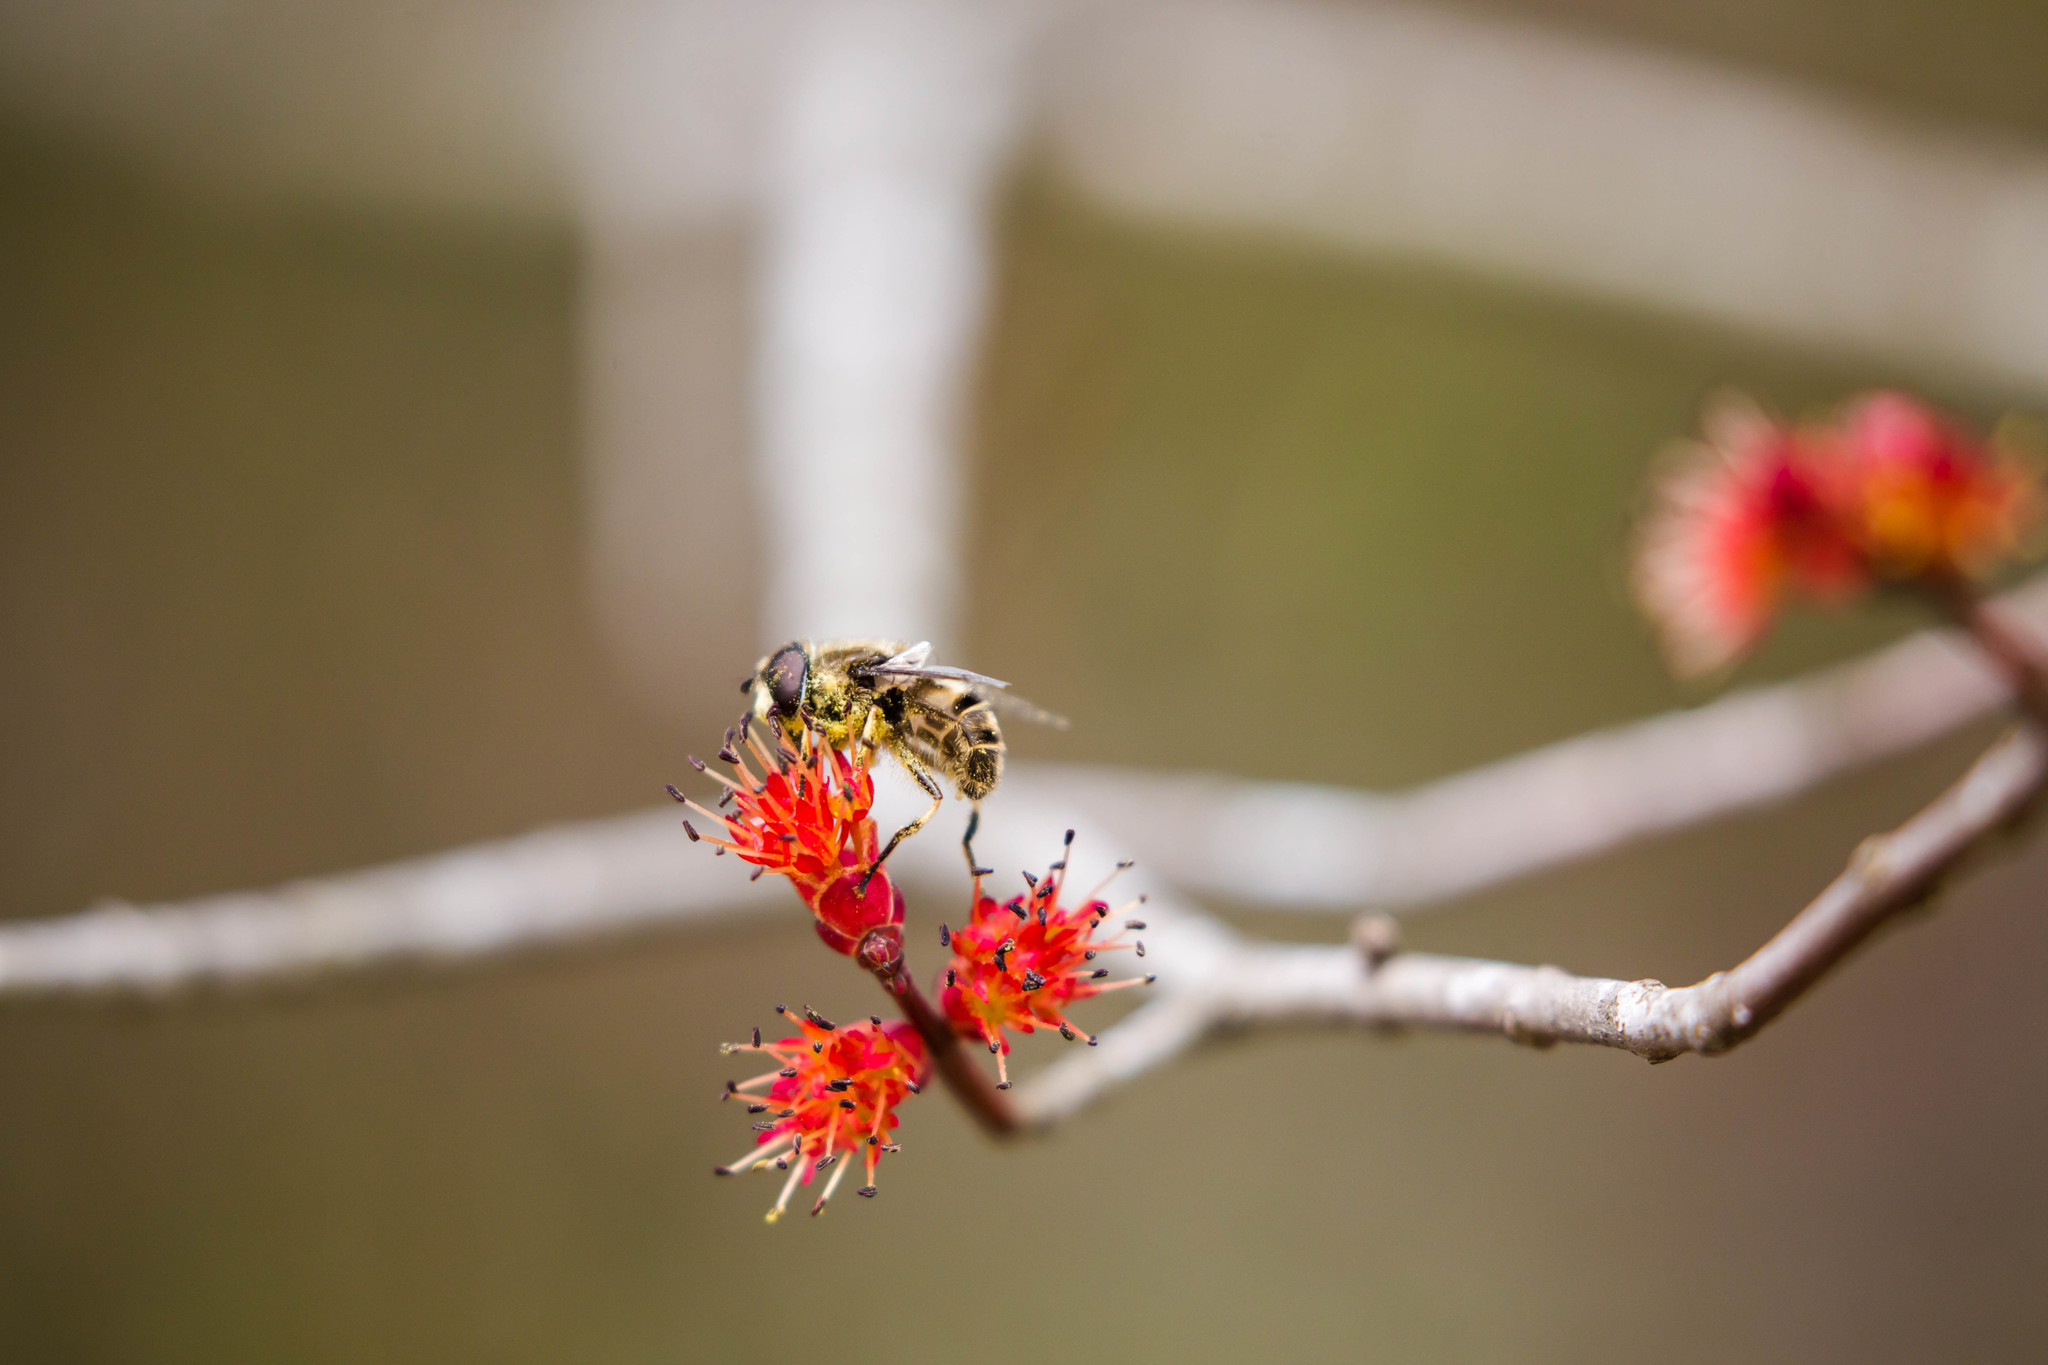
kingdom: Animalia
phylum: Arthropoda
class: Insecta
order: Diptera
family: Syrphidae
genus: Eristalis
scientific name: Eristalis dimidiata
